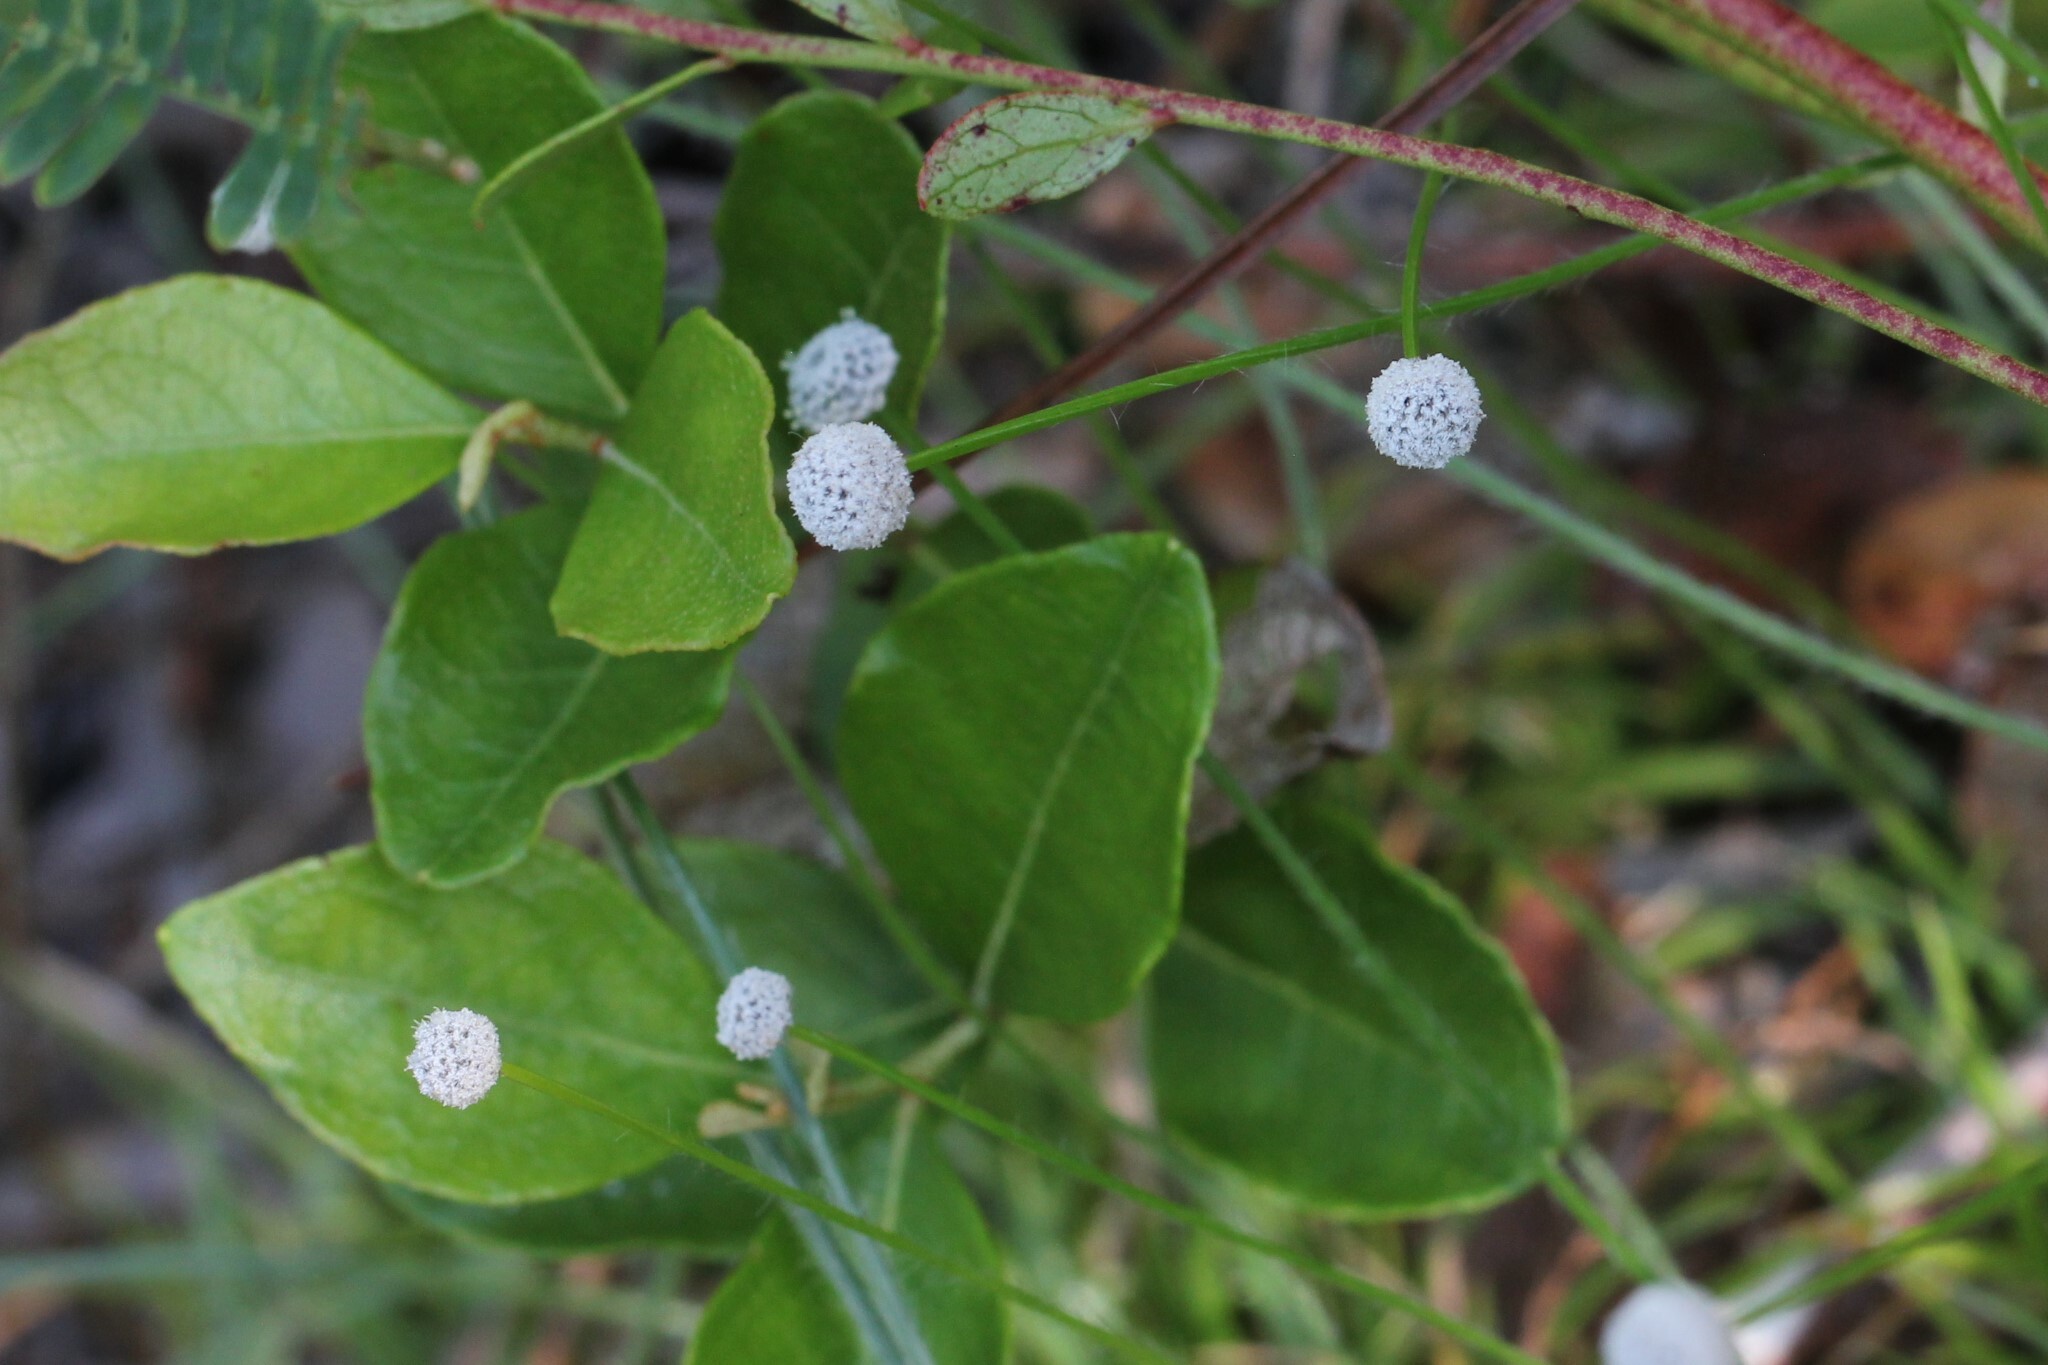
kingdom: Plantae
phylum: Tracheophyta
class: Liliopsida
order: Poales
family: Eriocaulaceae
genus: Paepalanthus
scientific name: Paepalanthus anceps
